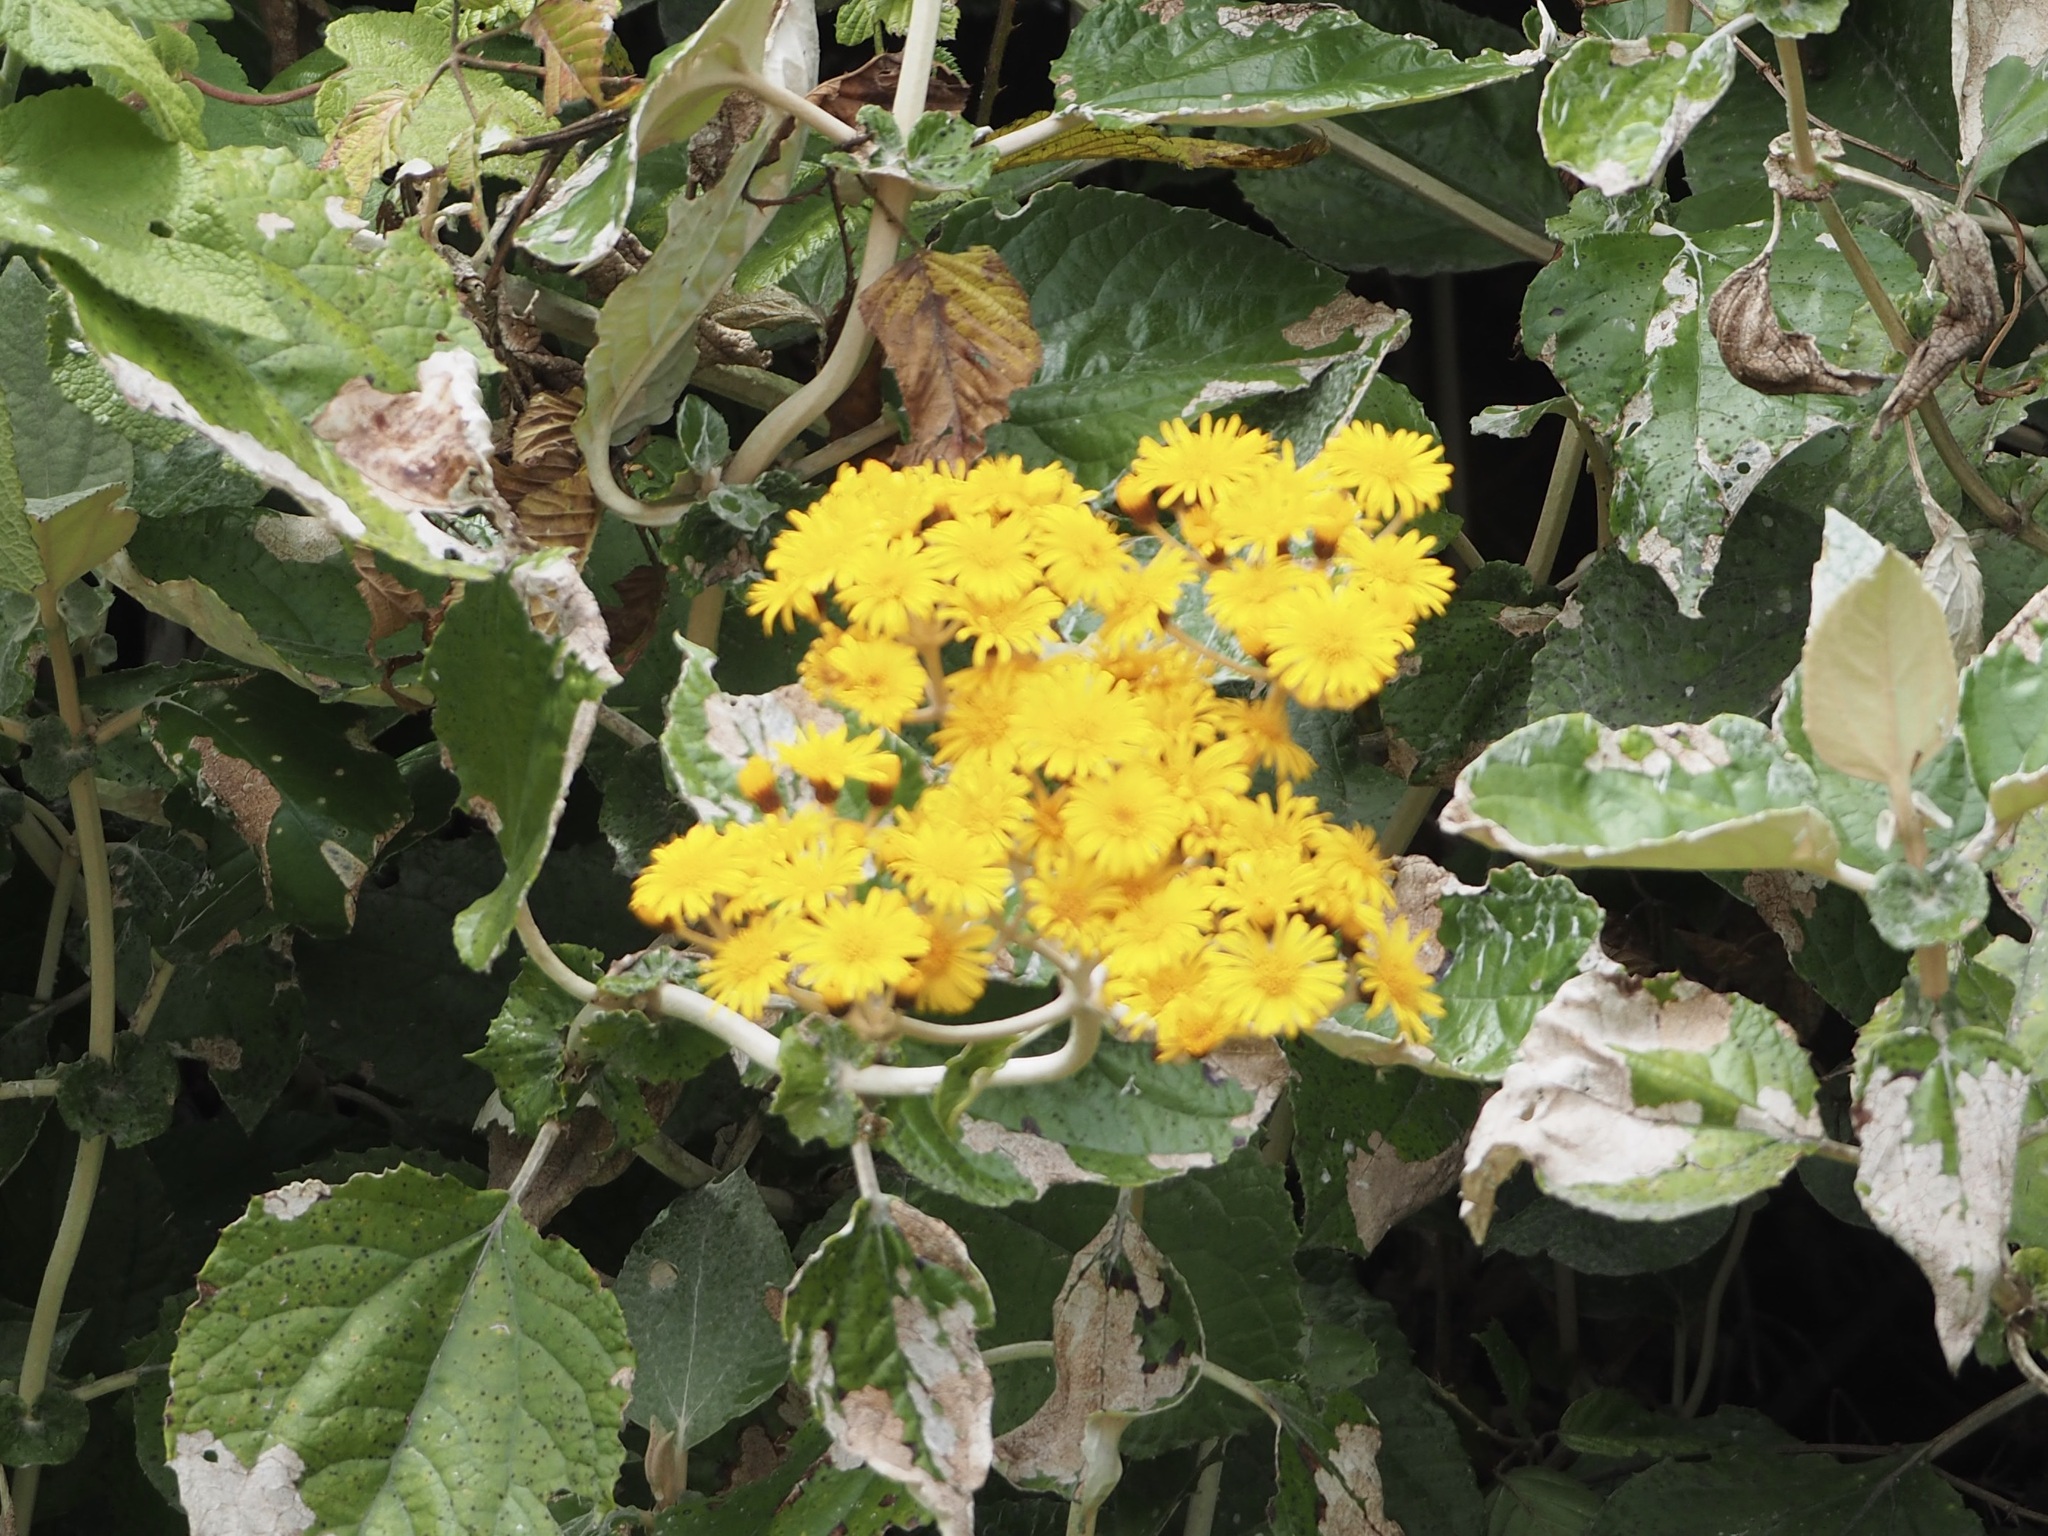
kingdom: Plantae
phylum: Tracheophyta
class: Magnoliopsida
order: Asterales
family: Asteraceae
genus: Liabum
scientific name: Liabum igniarium
